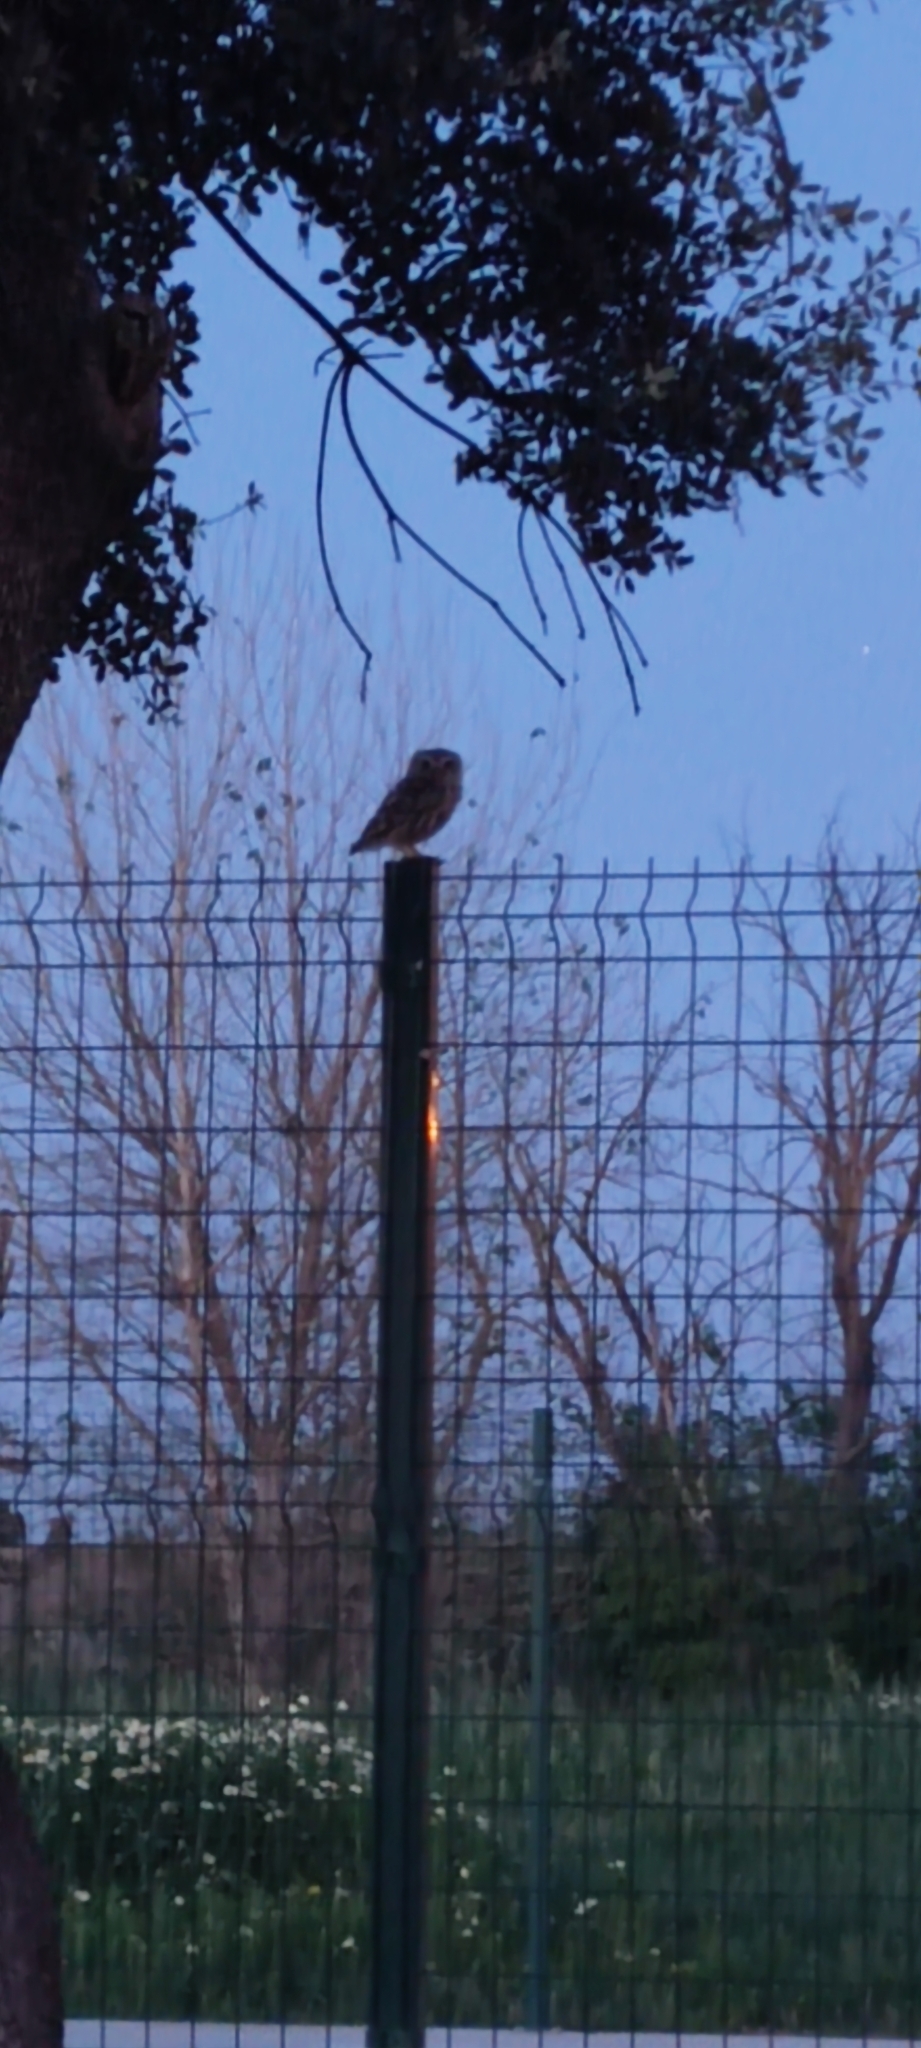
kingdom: Animalia
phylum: Chordata
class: Aves
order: Strigiformes
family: Strigidae
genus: Athene
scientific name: Athene noctua
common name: Little owl
